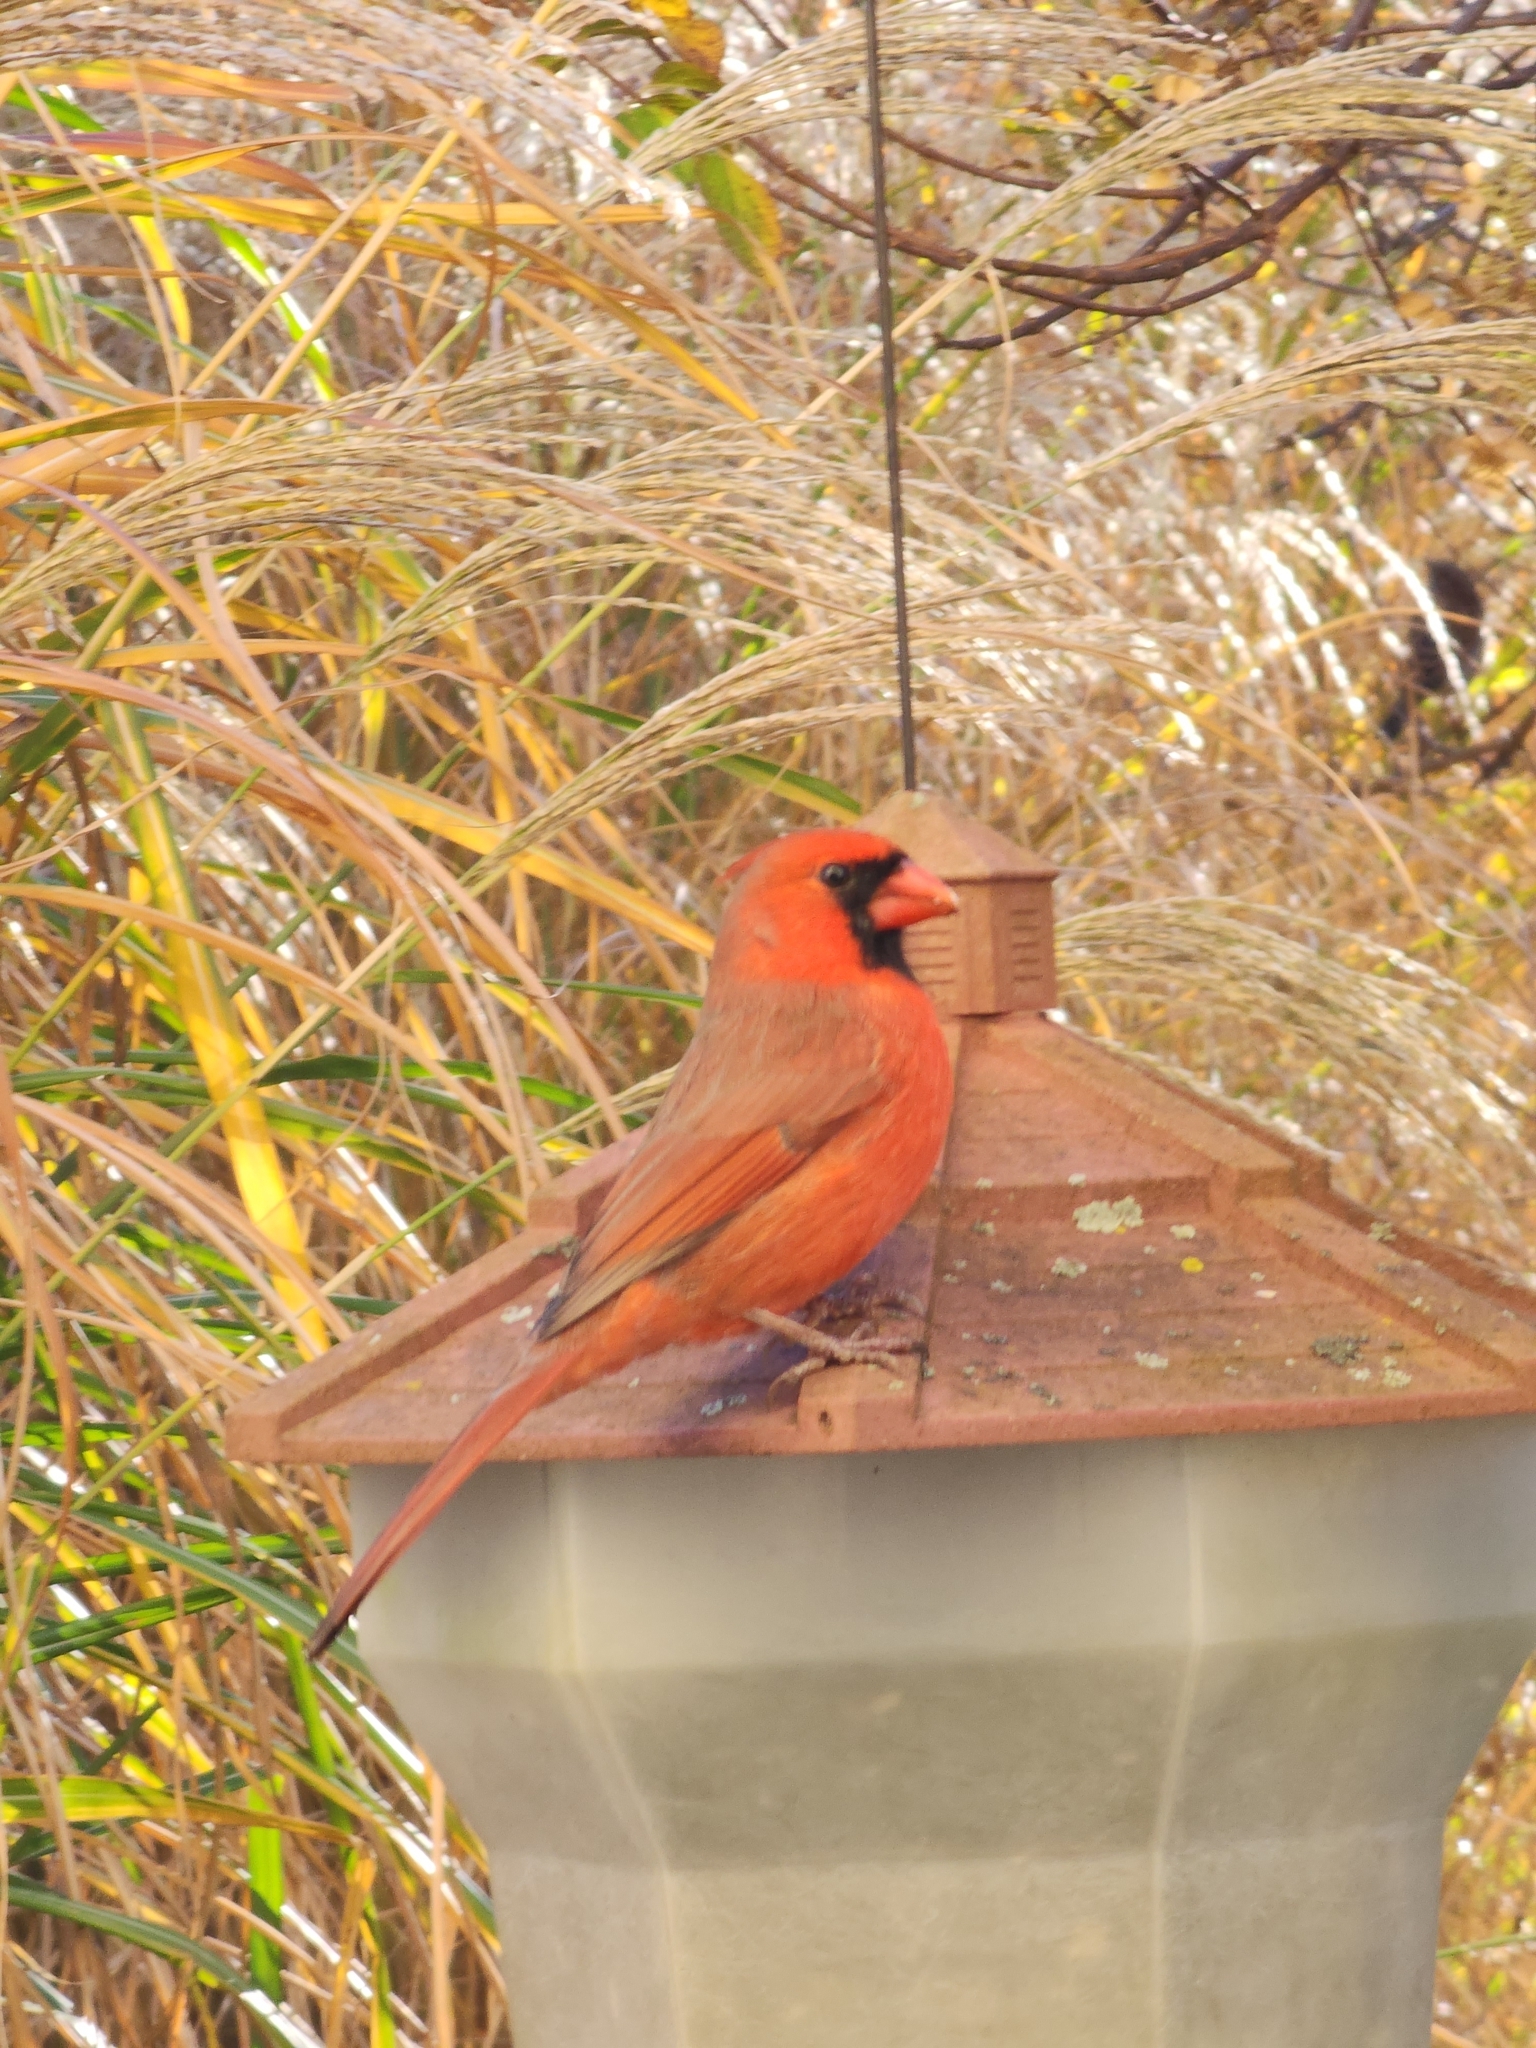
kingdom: Animalia
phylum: Chordata
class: Aves
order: Passeriformes
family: Cardinalidae
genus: Cardinalis
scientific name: Cardinalis cardinalis
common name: Northern cardinal
